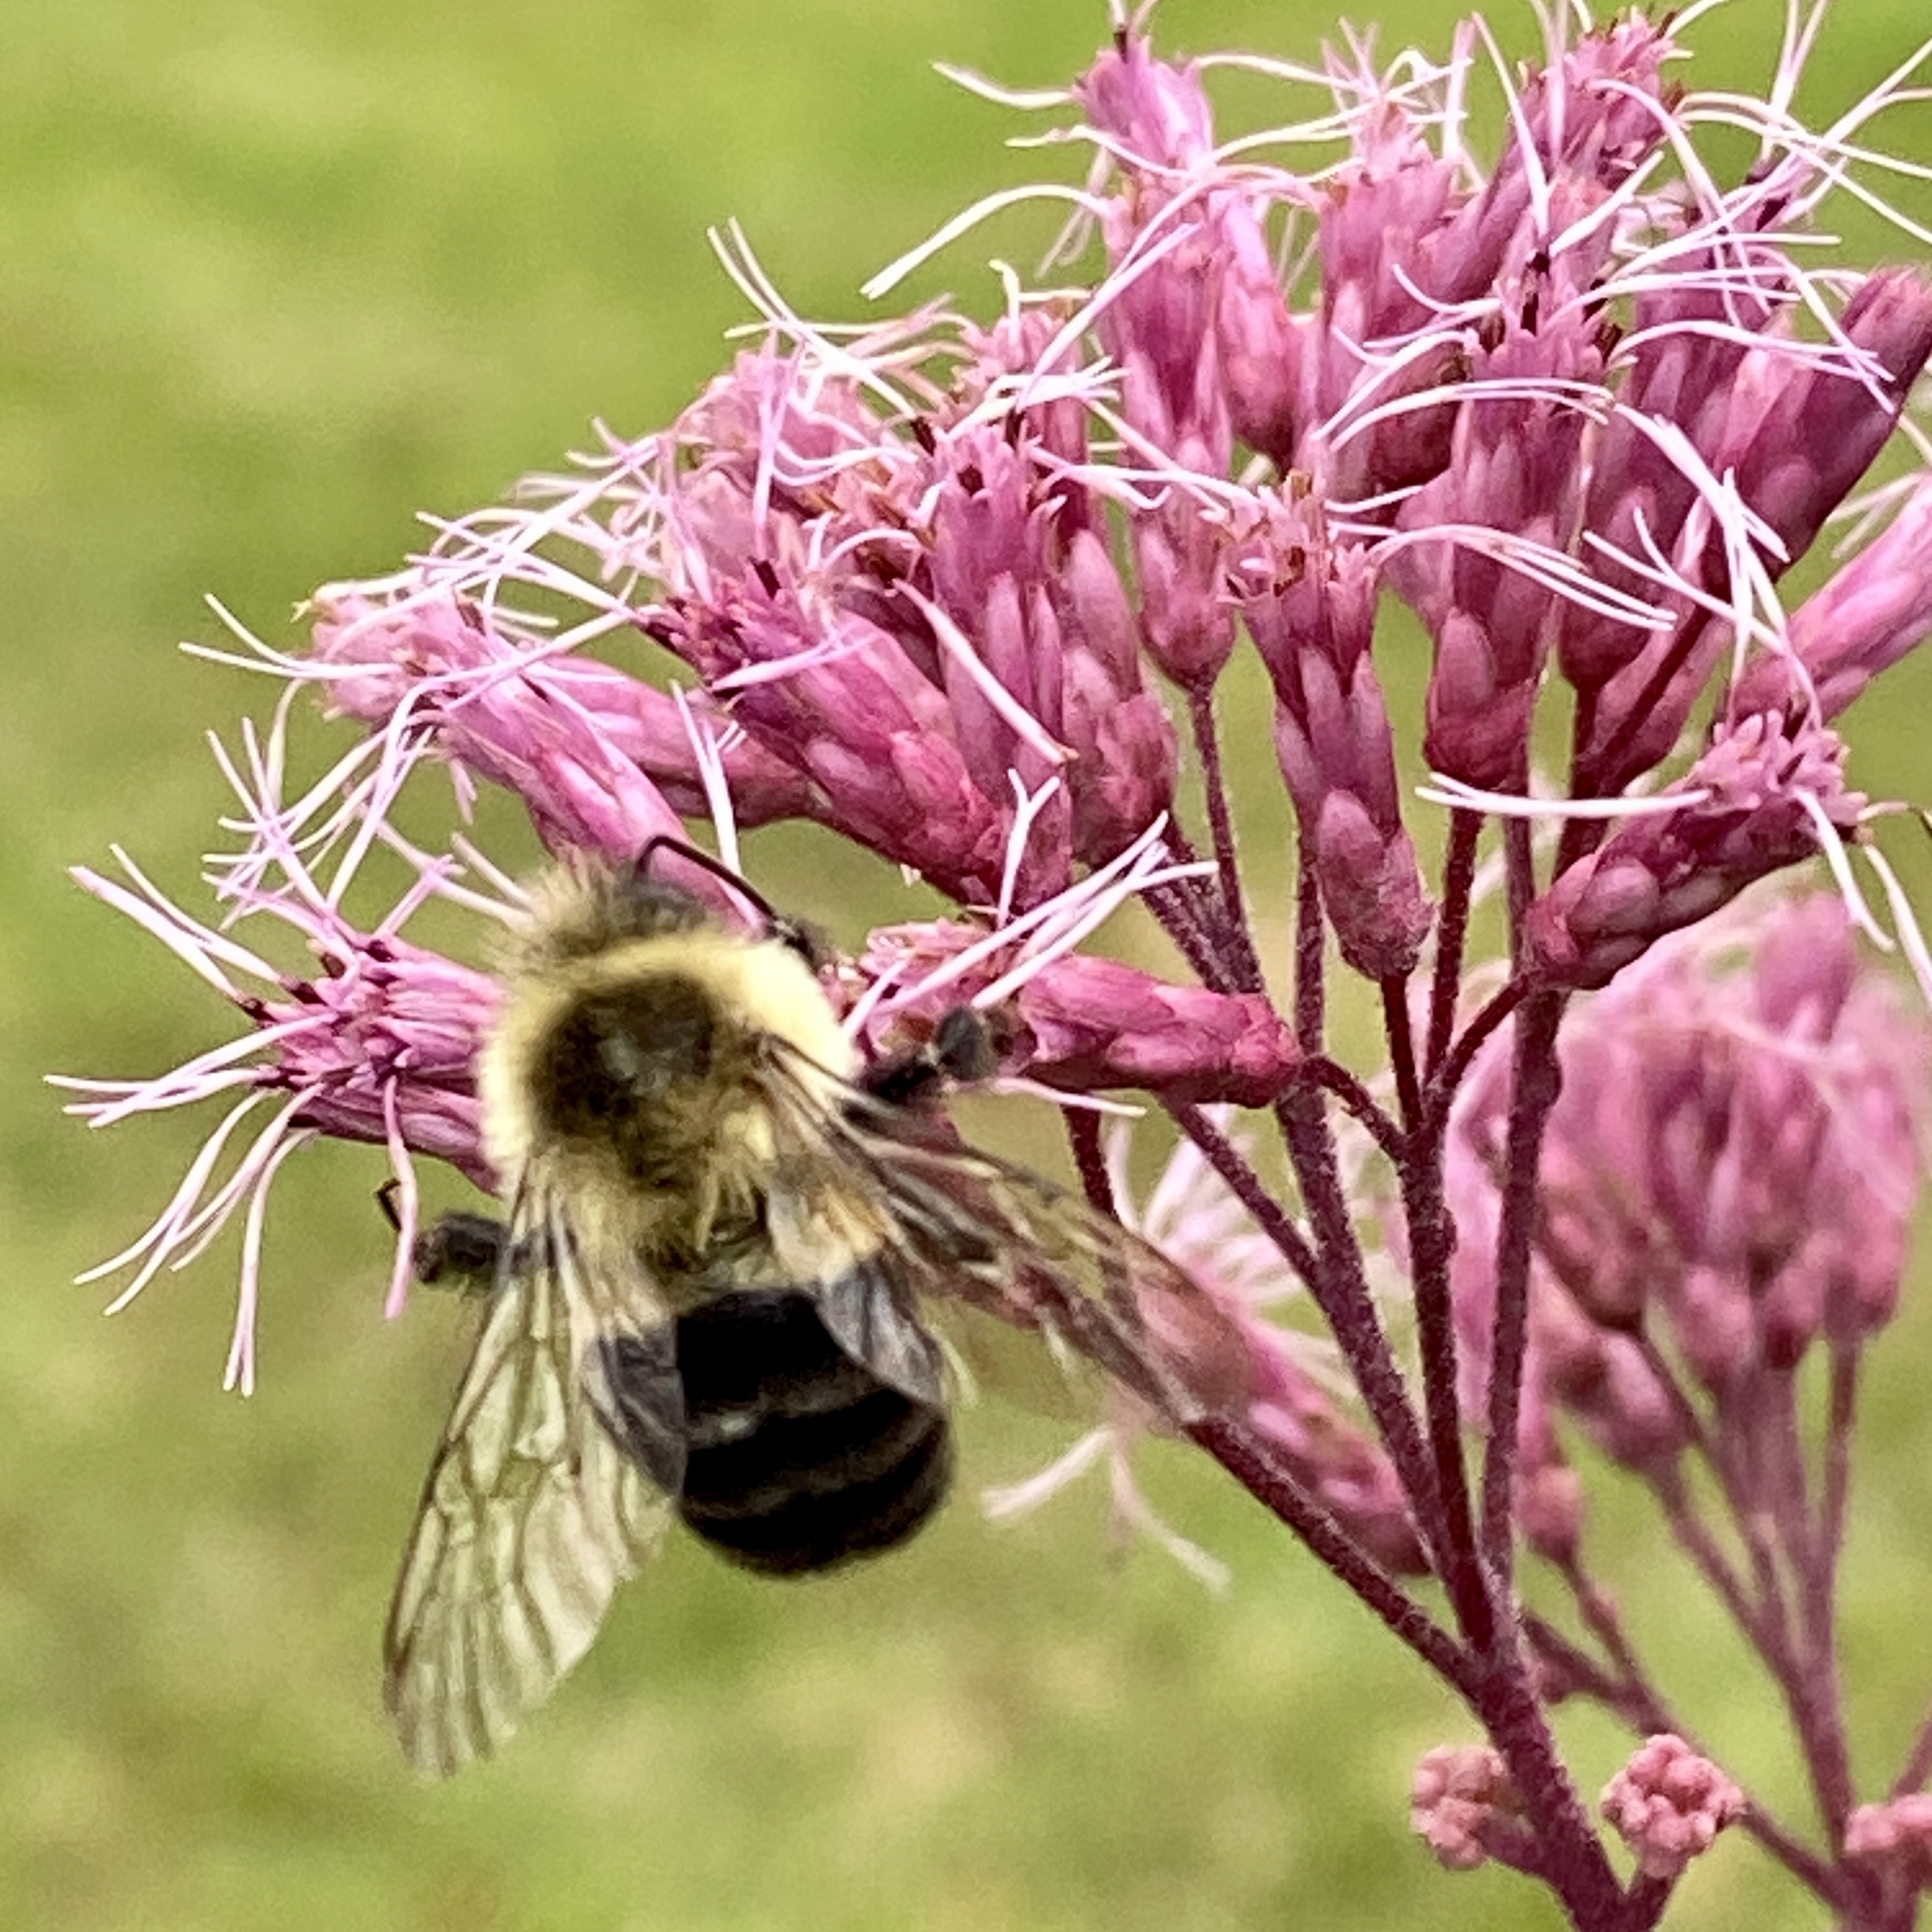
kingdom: Animalia
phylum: Arthropoda
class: Insecta
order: Hymenoptera
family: Apidae
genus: Bombus
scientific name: Bombus impatiens
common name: Common eastern bumble bee
